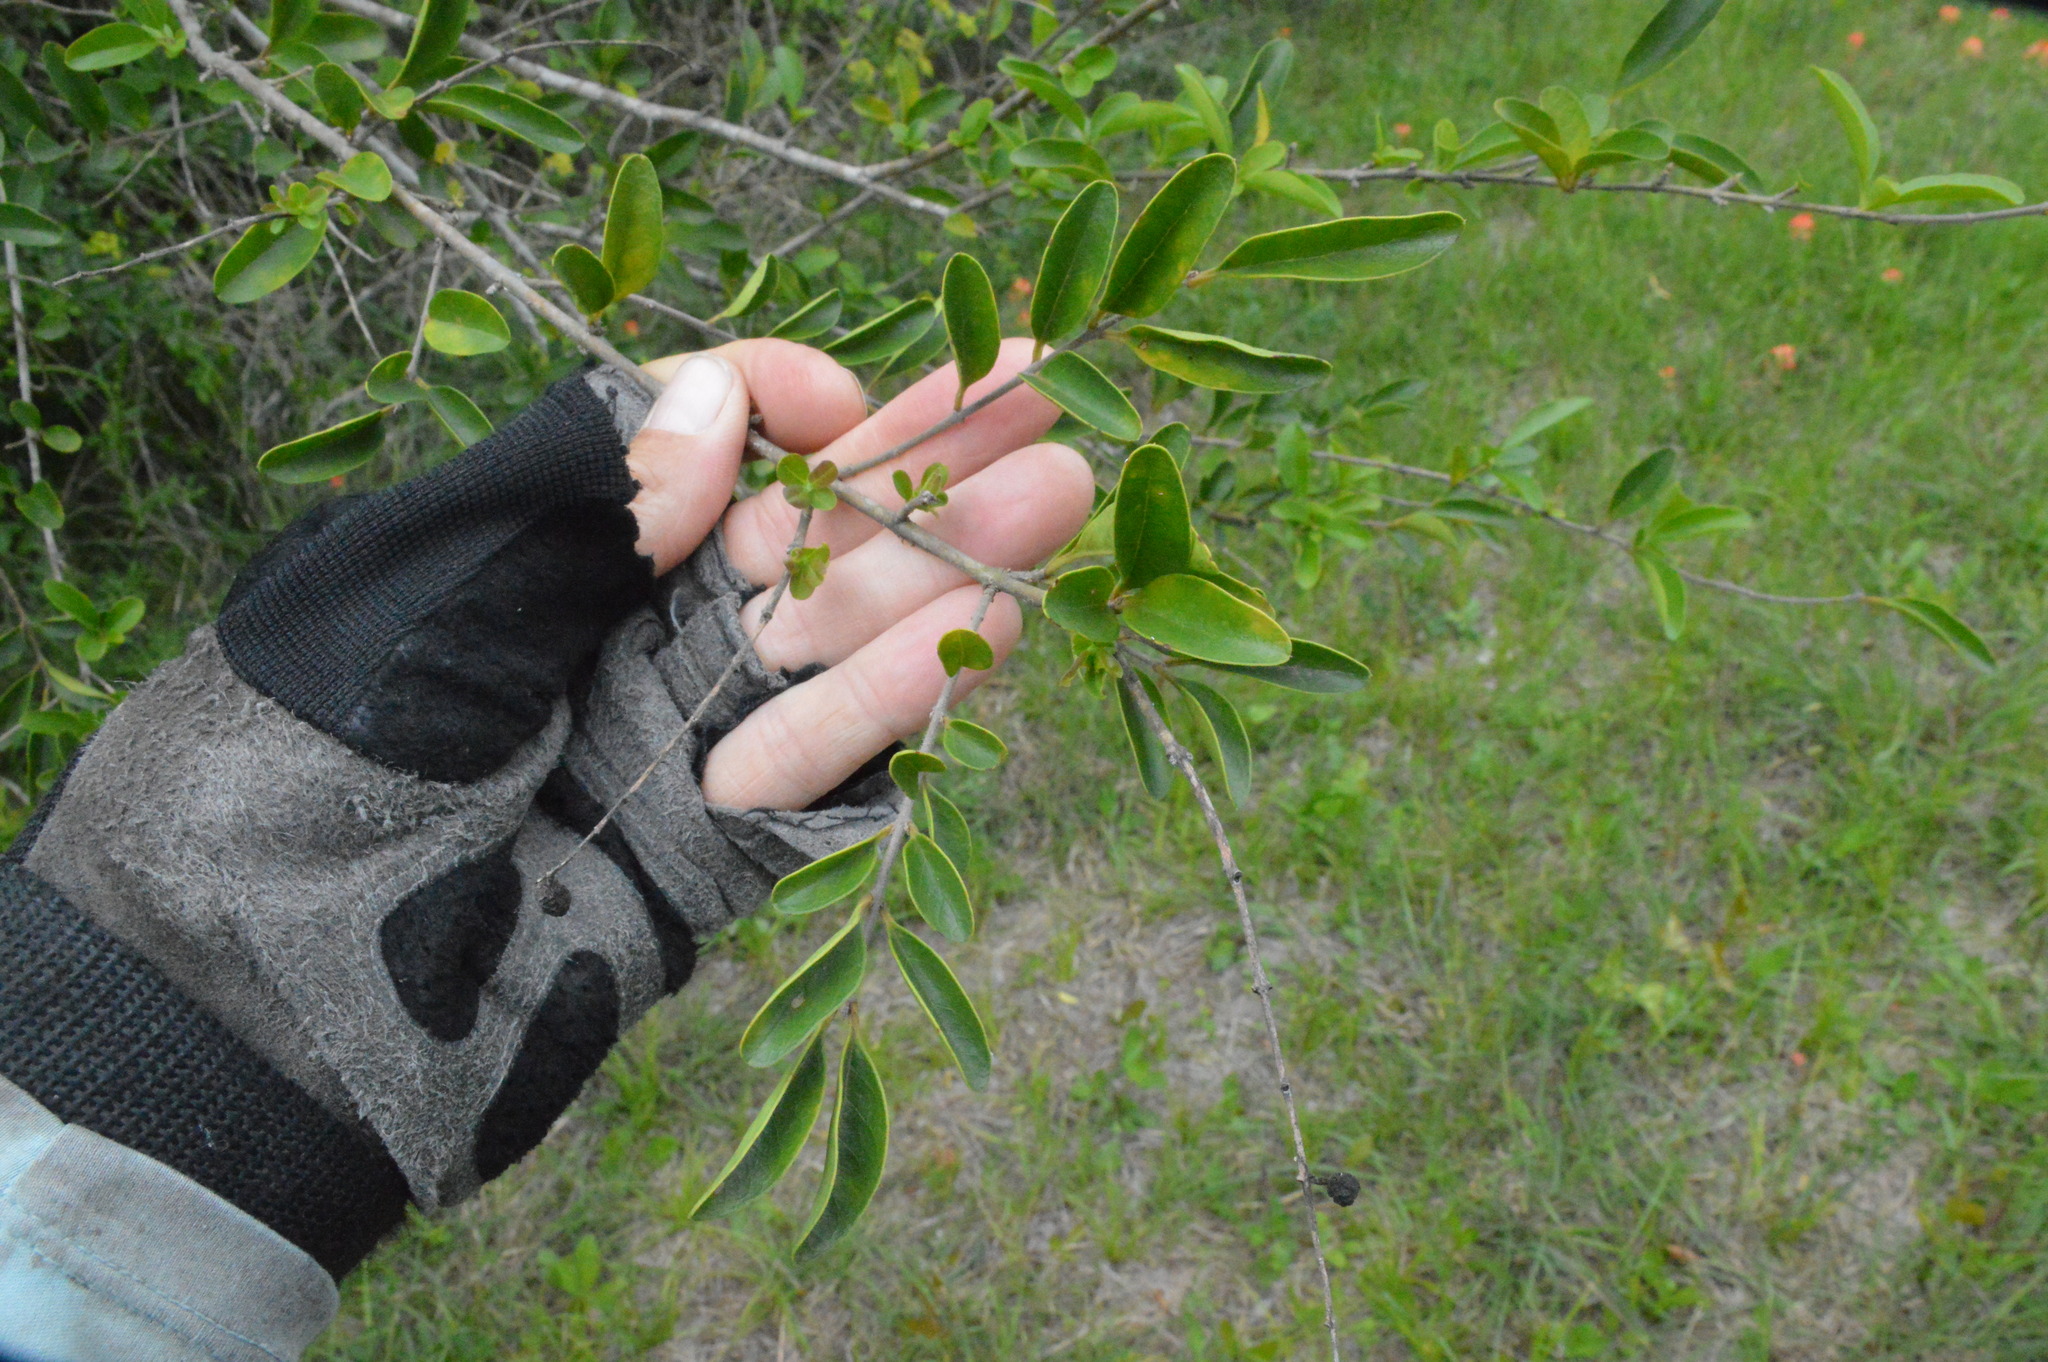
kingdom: Plantae
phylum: Tracheophyta
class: Magnoliopsida
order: Lamiales
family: Oleaceae
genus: Ligustrum
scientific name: Ligustrum sinense
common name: Chinese privet
